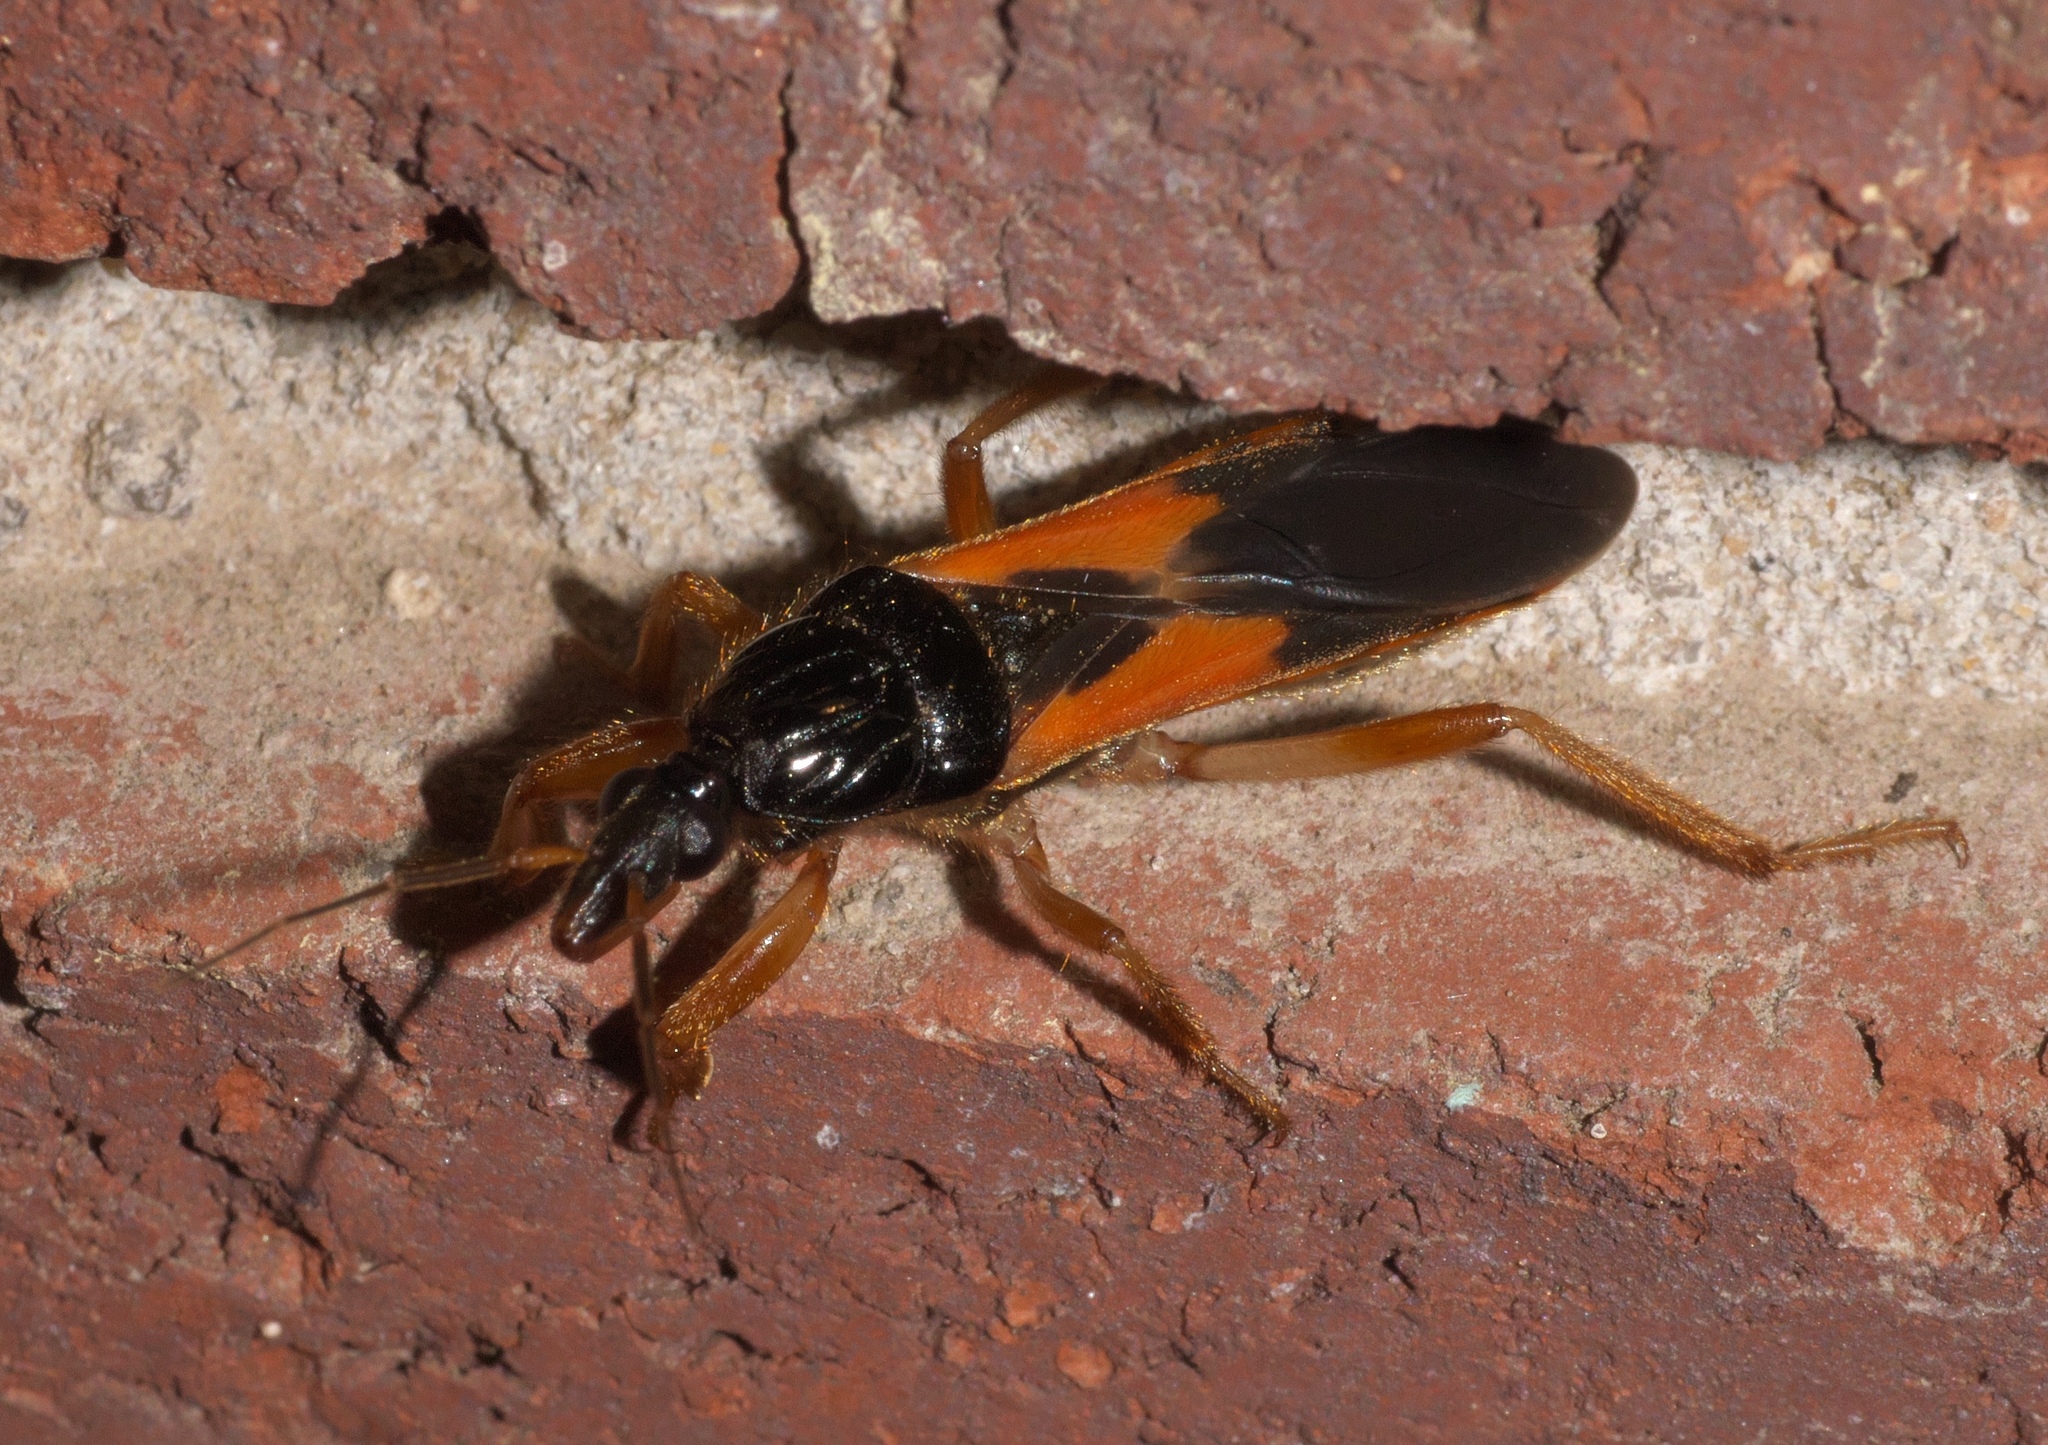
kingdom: Animalia
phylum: Arthropoda
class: Insecta
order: Hemiptera
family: Reduviidae
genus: Sirthenea
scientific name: Sirthenea stria
